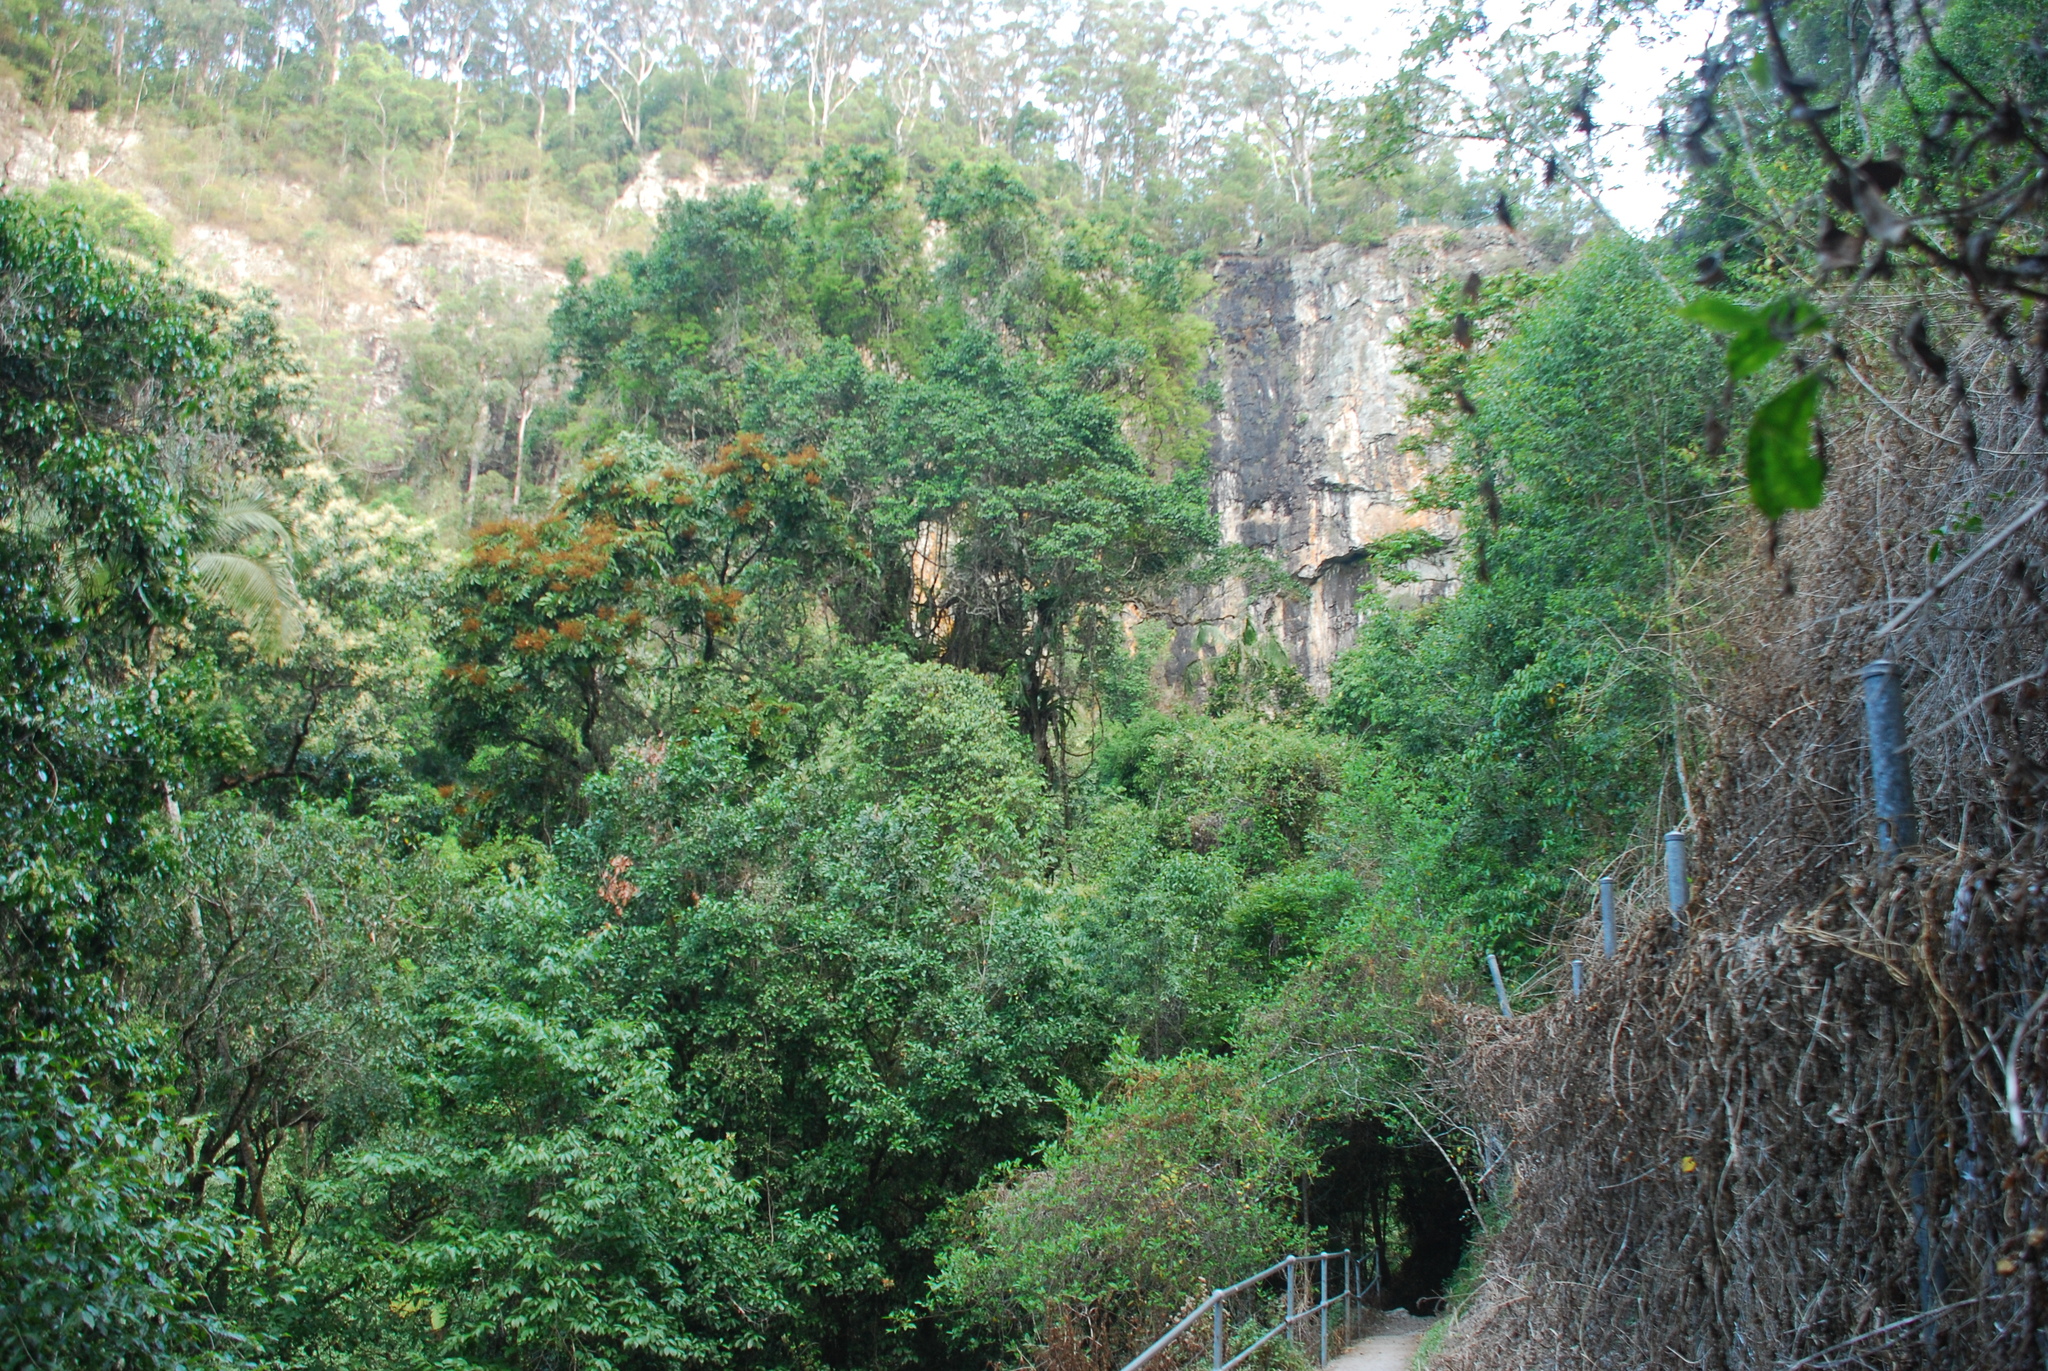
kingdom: Plantae
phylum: Tracheophyta
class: Magnoliopsida
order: Sapindales
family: Sapindaceae
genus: Diploglottis
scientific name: Diploglottis australis
